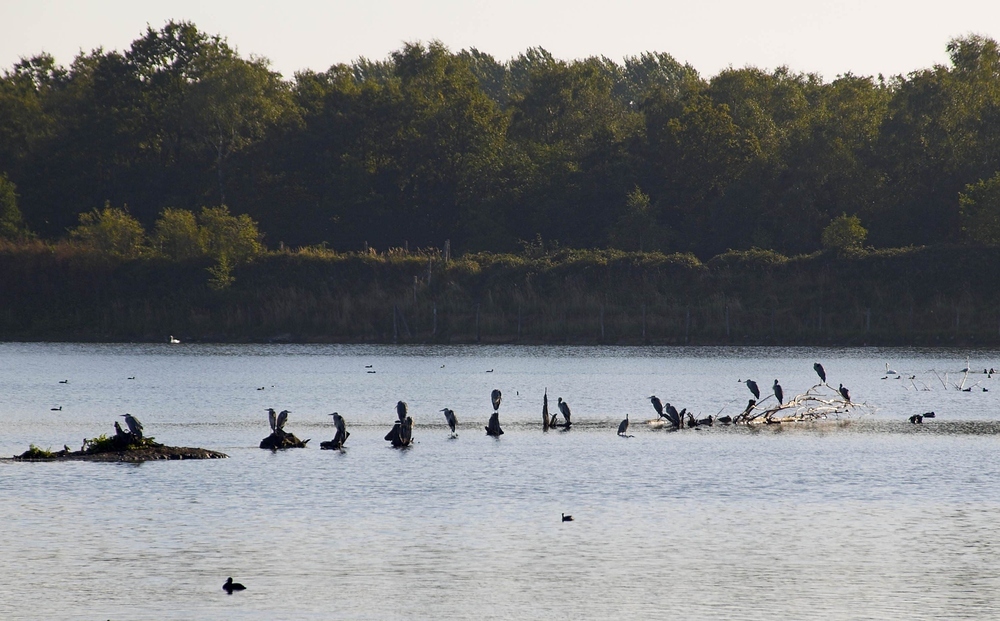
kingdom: Animalia
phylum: Chordata
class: Aves
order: Pelecaniformes
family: Ardeidae
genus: Ardea
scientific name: Ardea cinerea
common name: Grey heron
